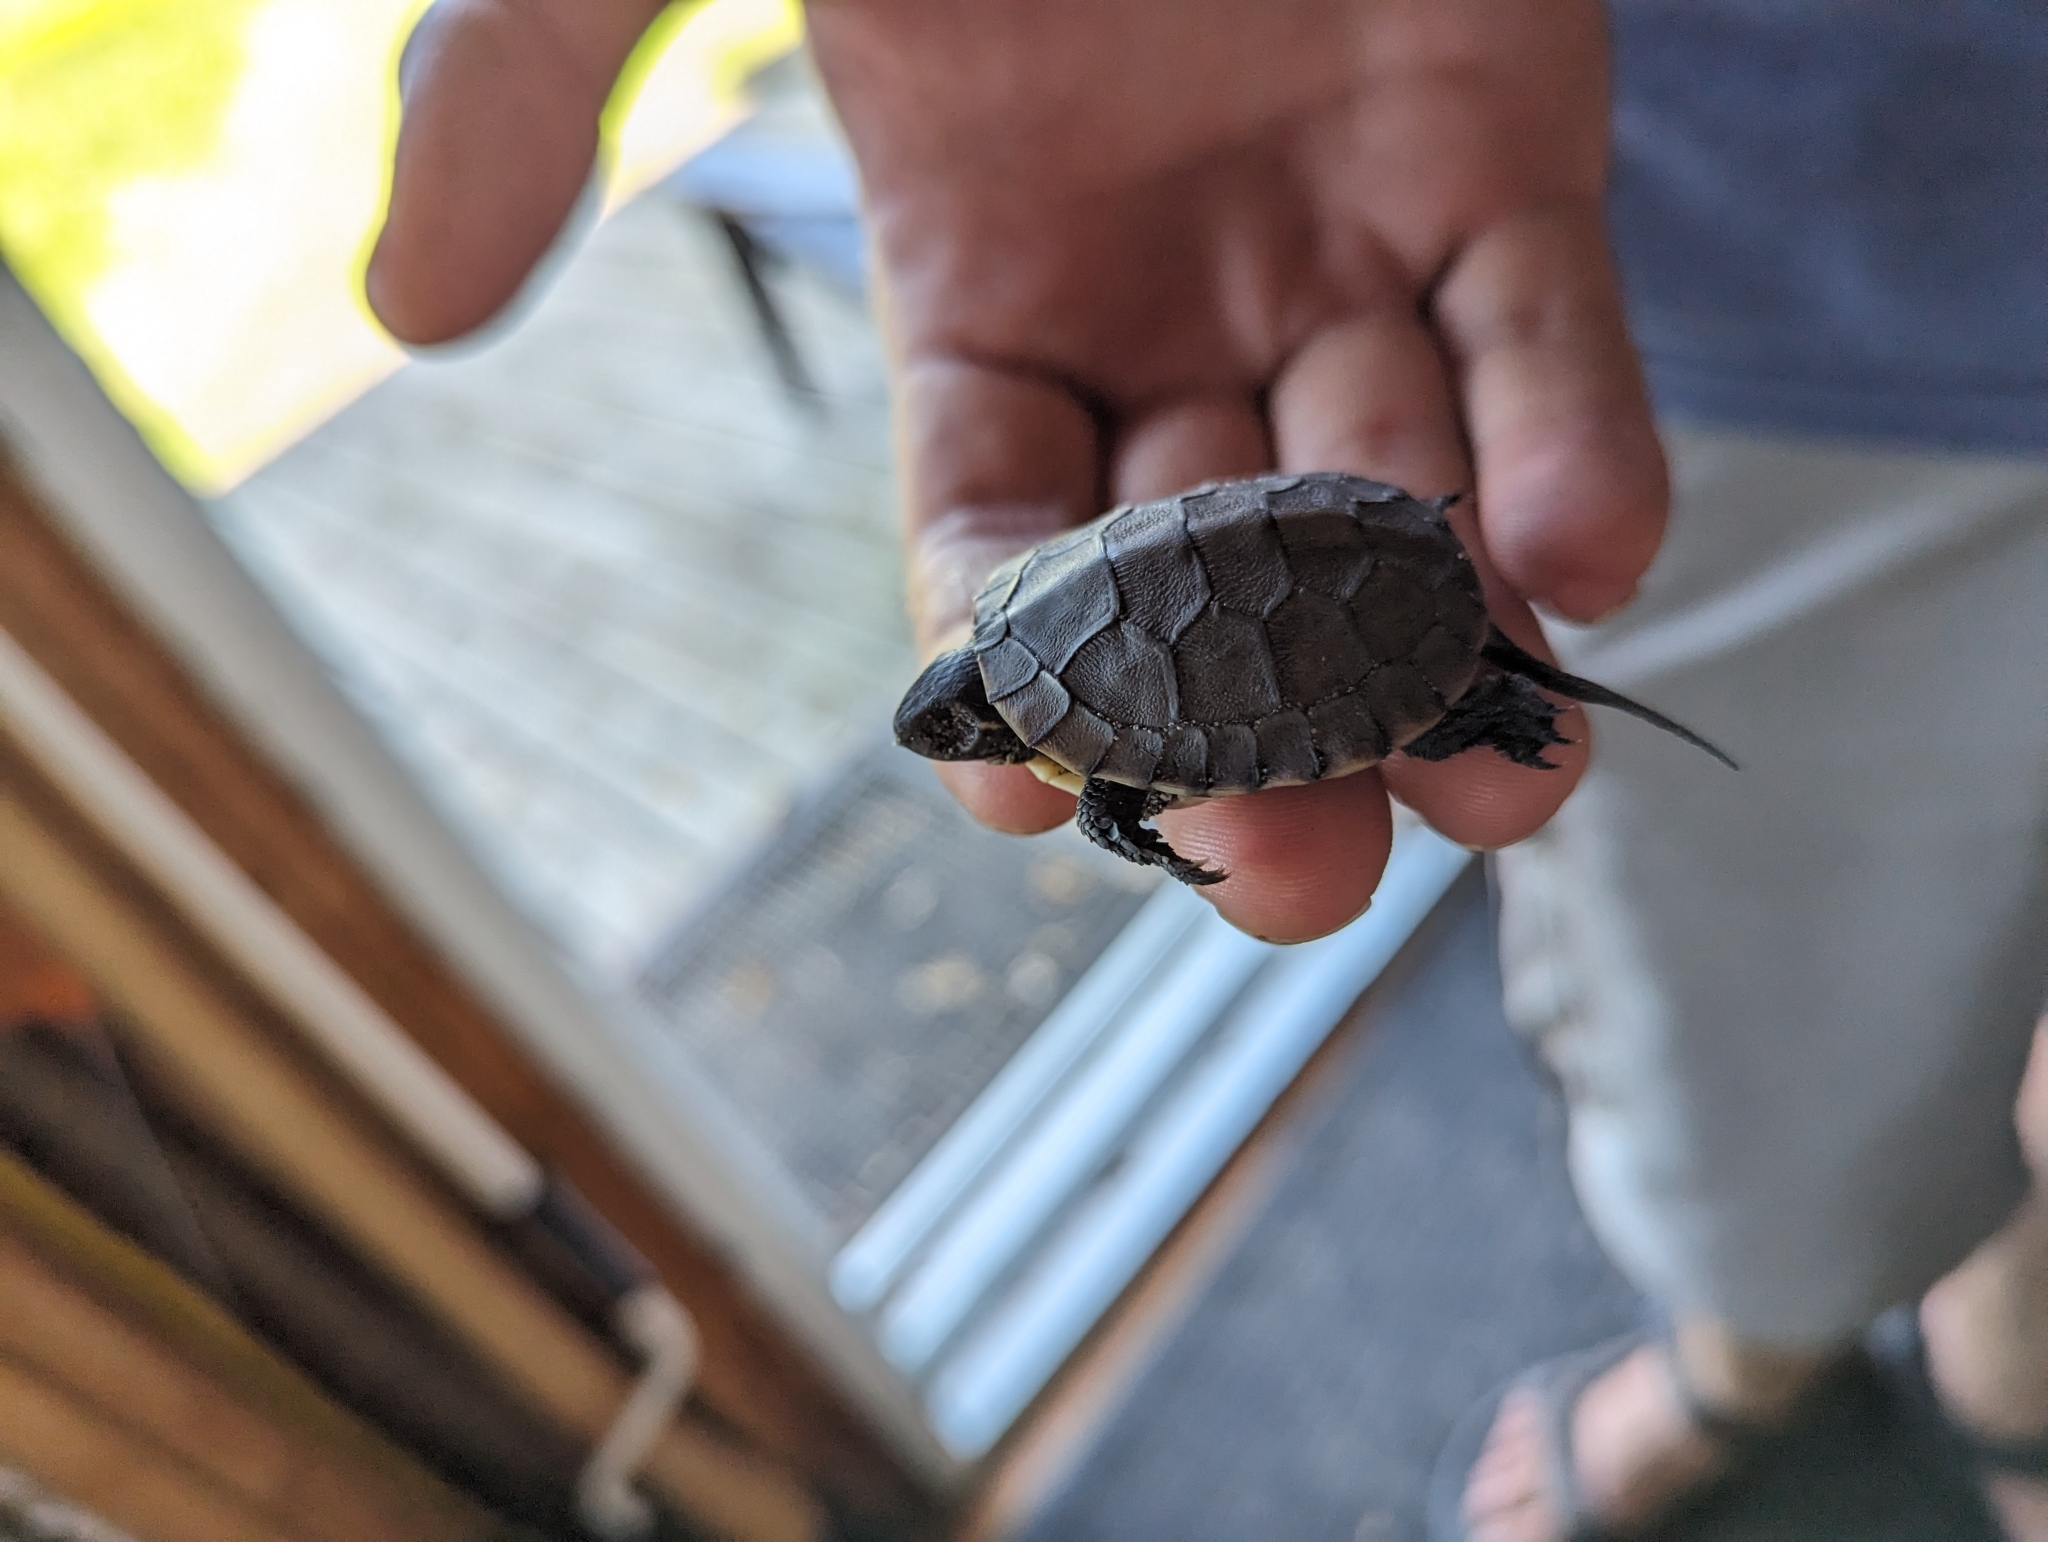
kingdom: Animalia
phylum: Chordata
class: Testudines
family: Emydidae
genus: Emys
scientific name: Emys blandingii
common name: Blanding's turtle
